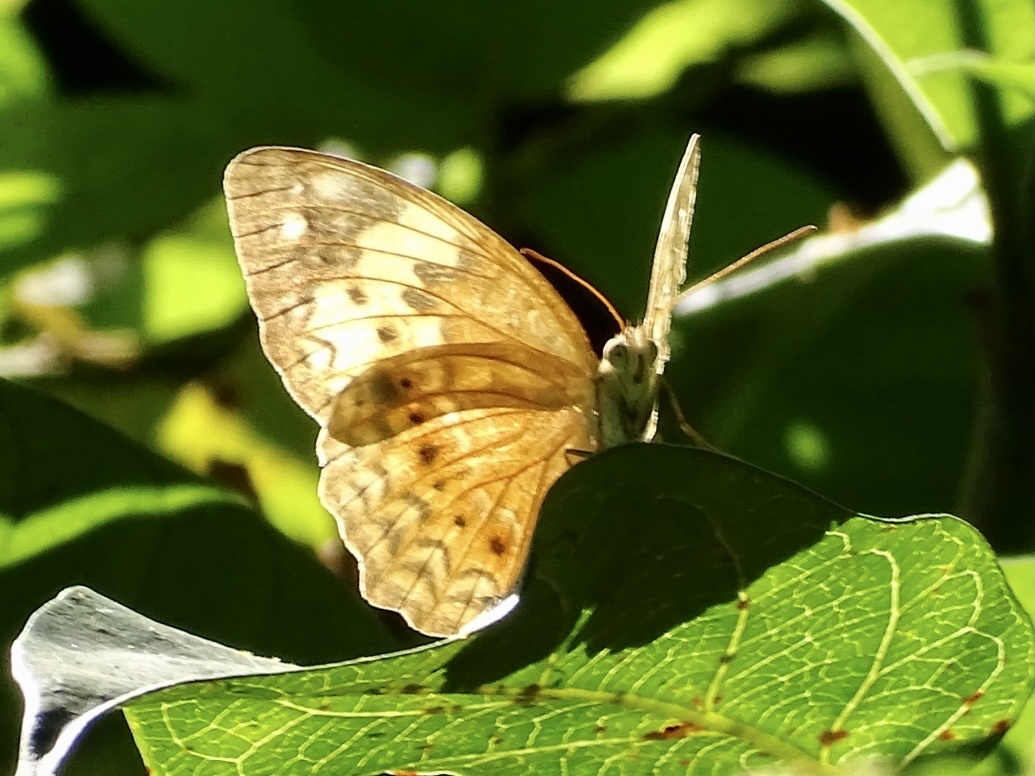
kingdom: Animalia
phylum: Arthropoda
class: Insecta
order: Lepidoptera
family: Nymphalidae
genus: Cupha
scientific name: Cupha erymanthis
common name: Rustic
